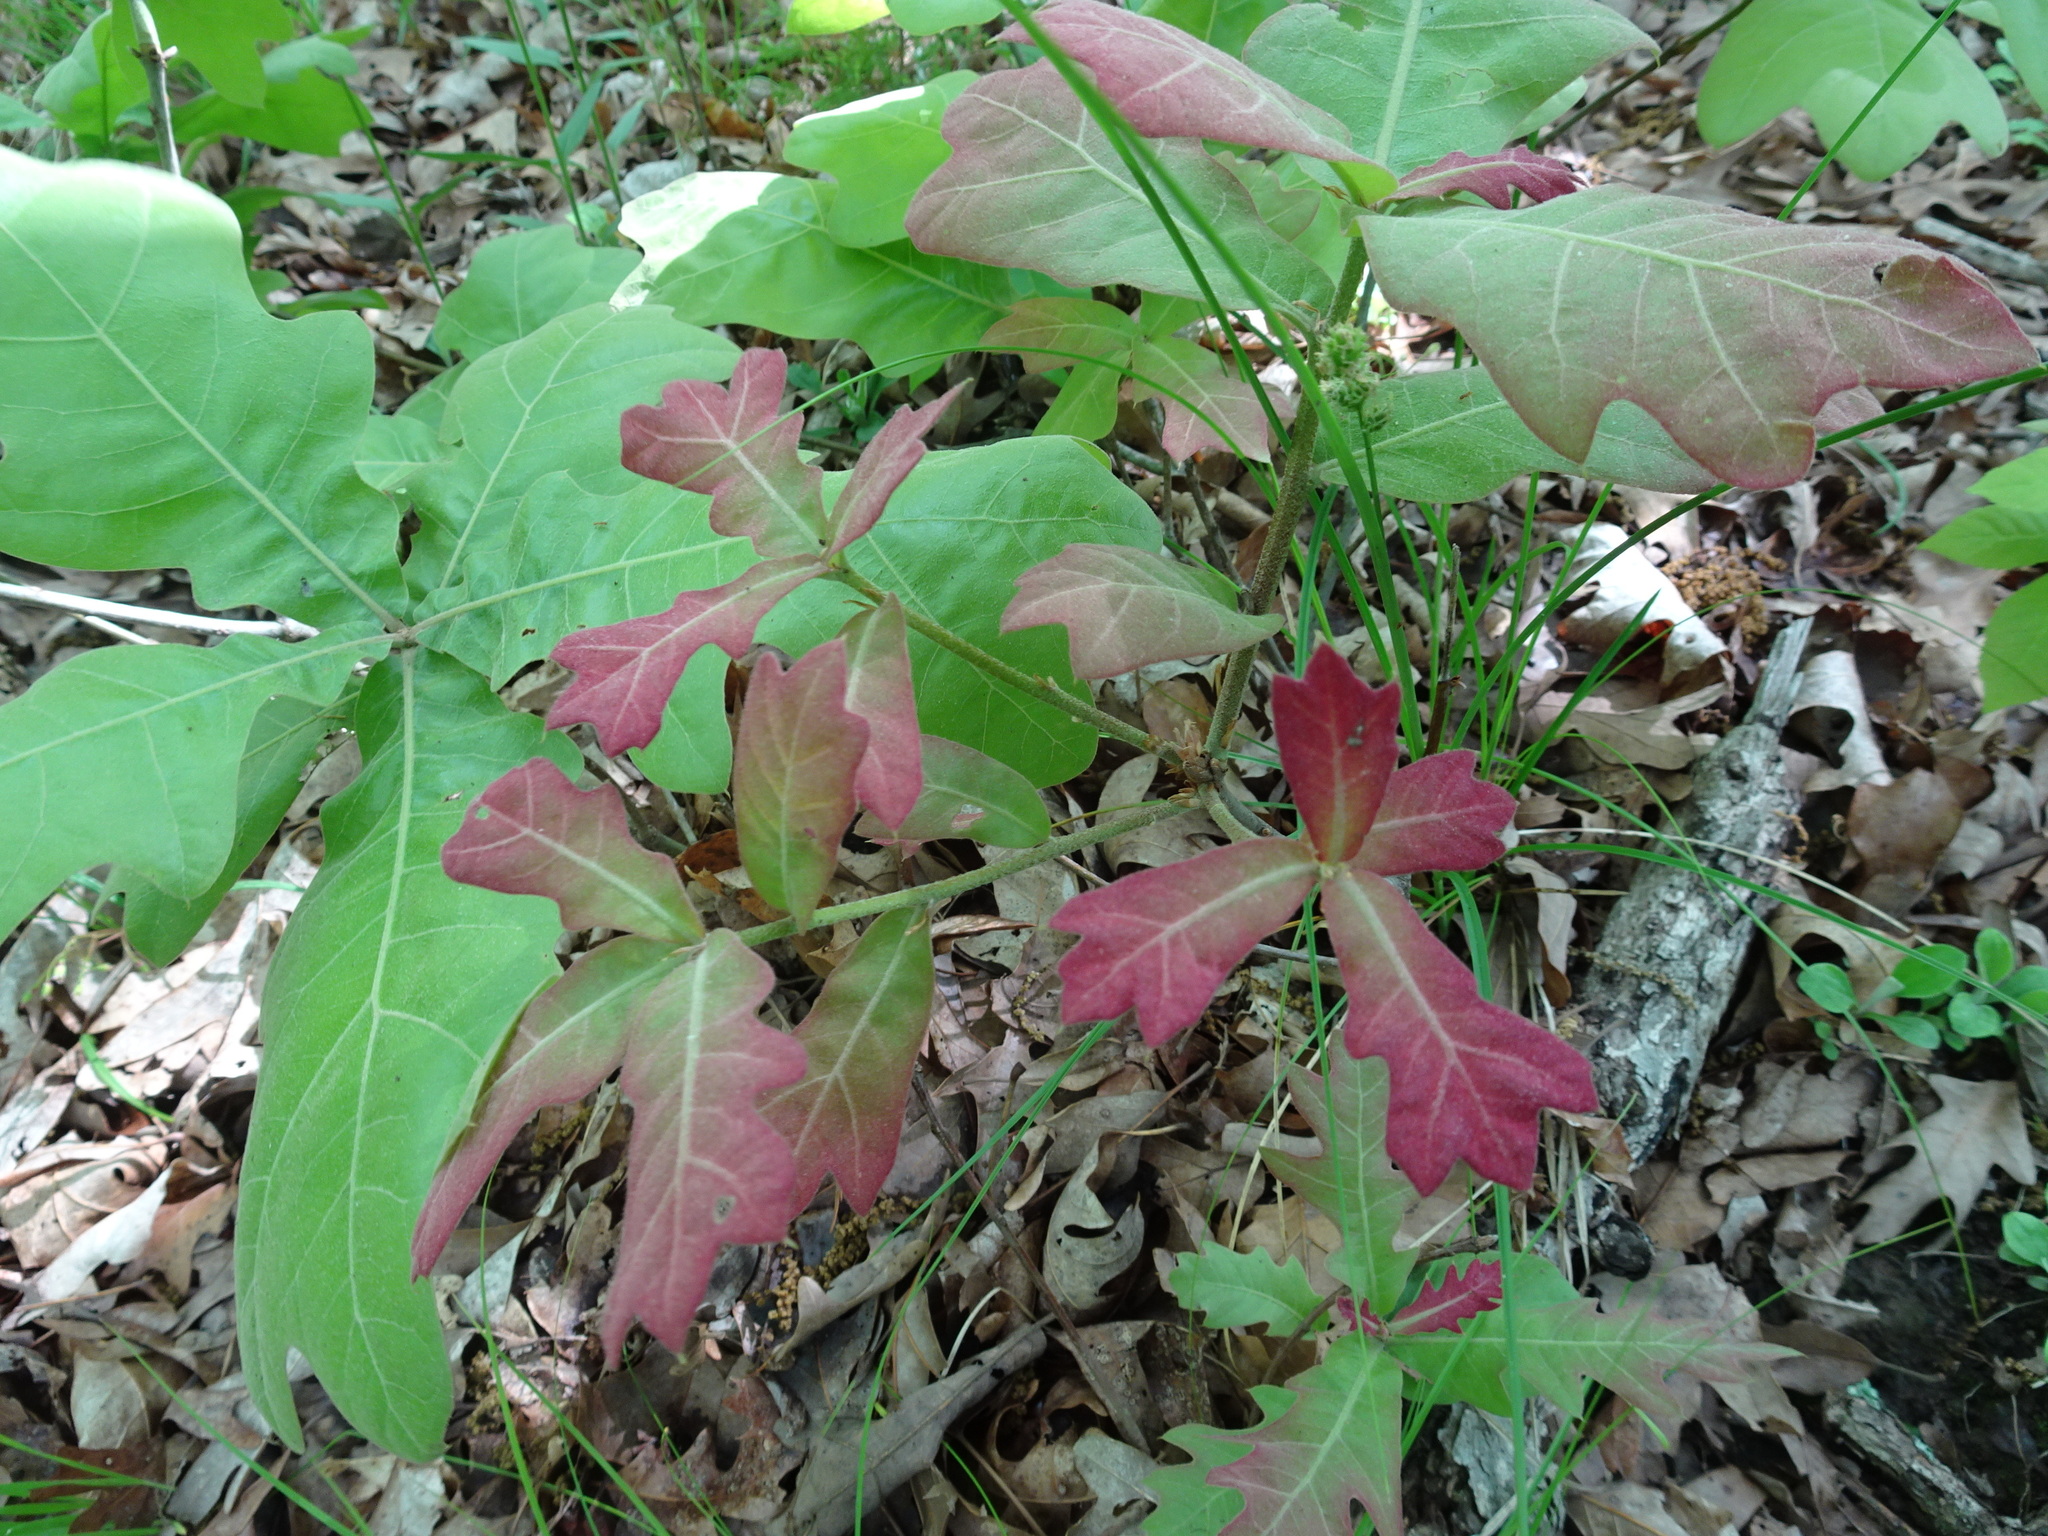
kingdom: Plantae
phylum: Tracheophyta
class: Magnoliopsida
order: Fagales
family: Fagaceae
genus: Quercus
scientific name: Quercus marilandica
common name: Blackjack oak
